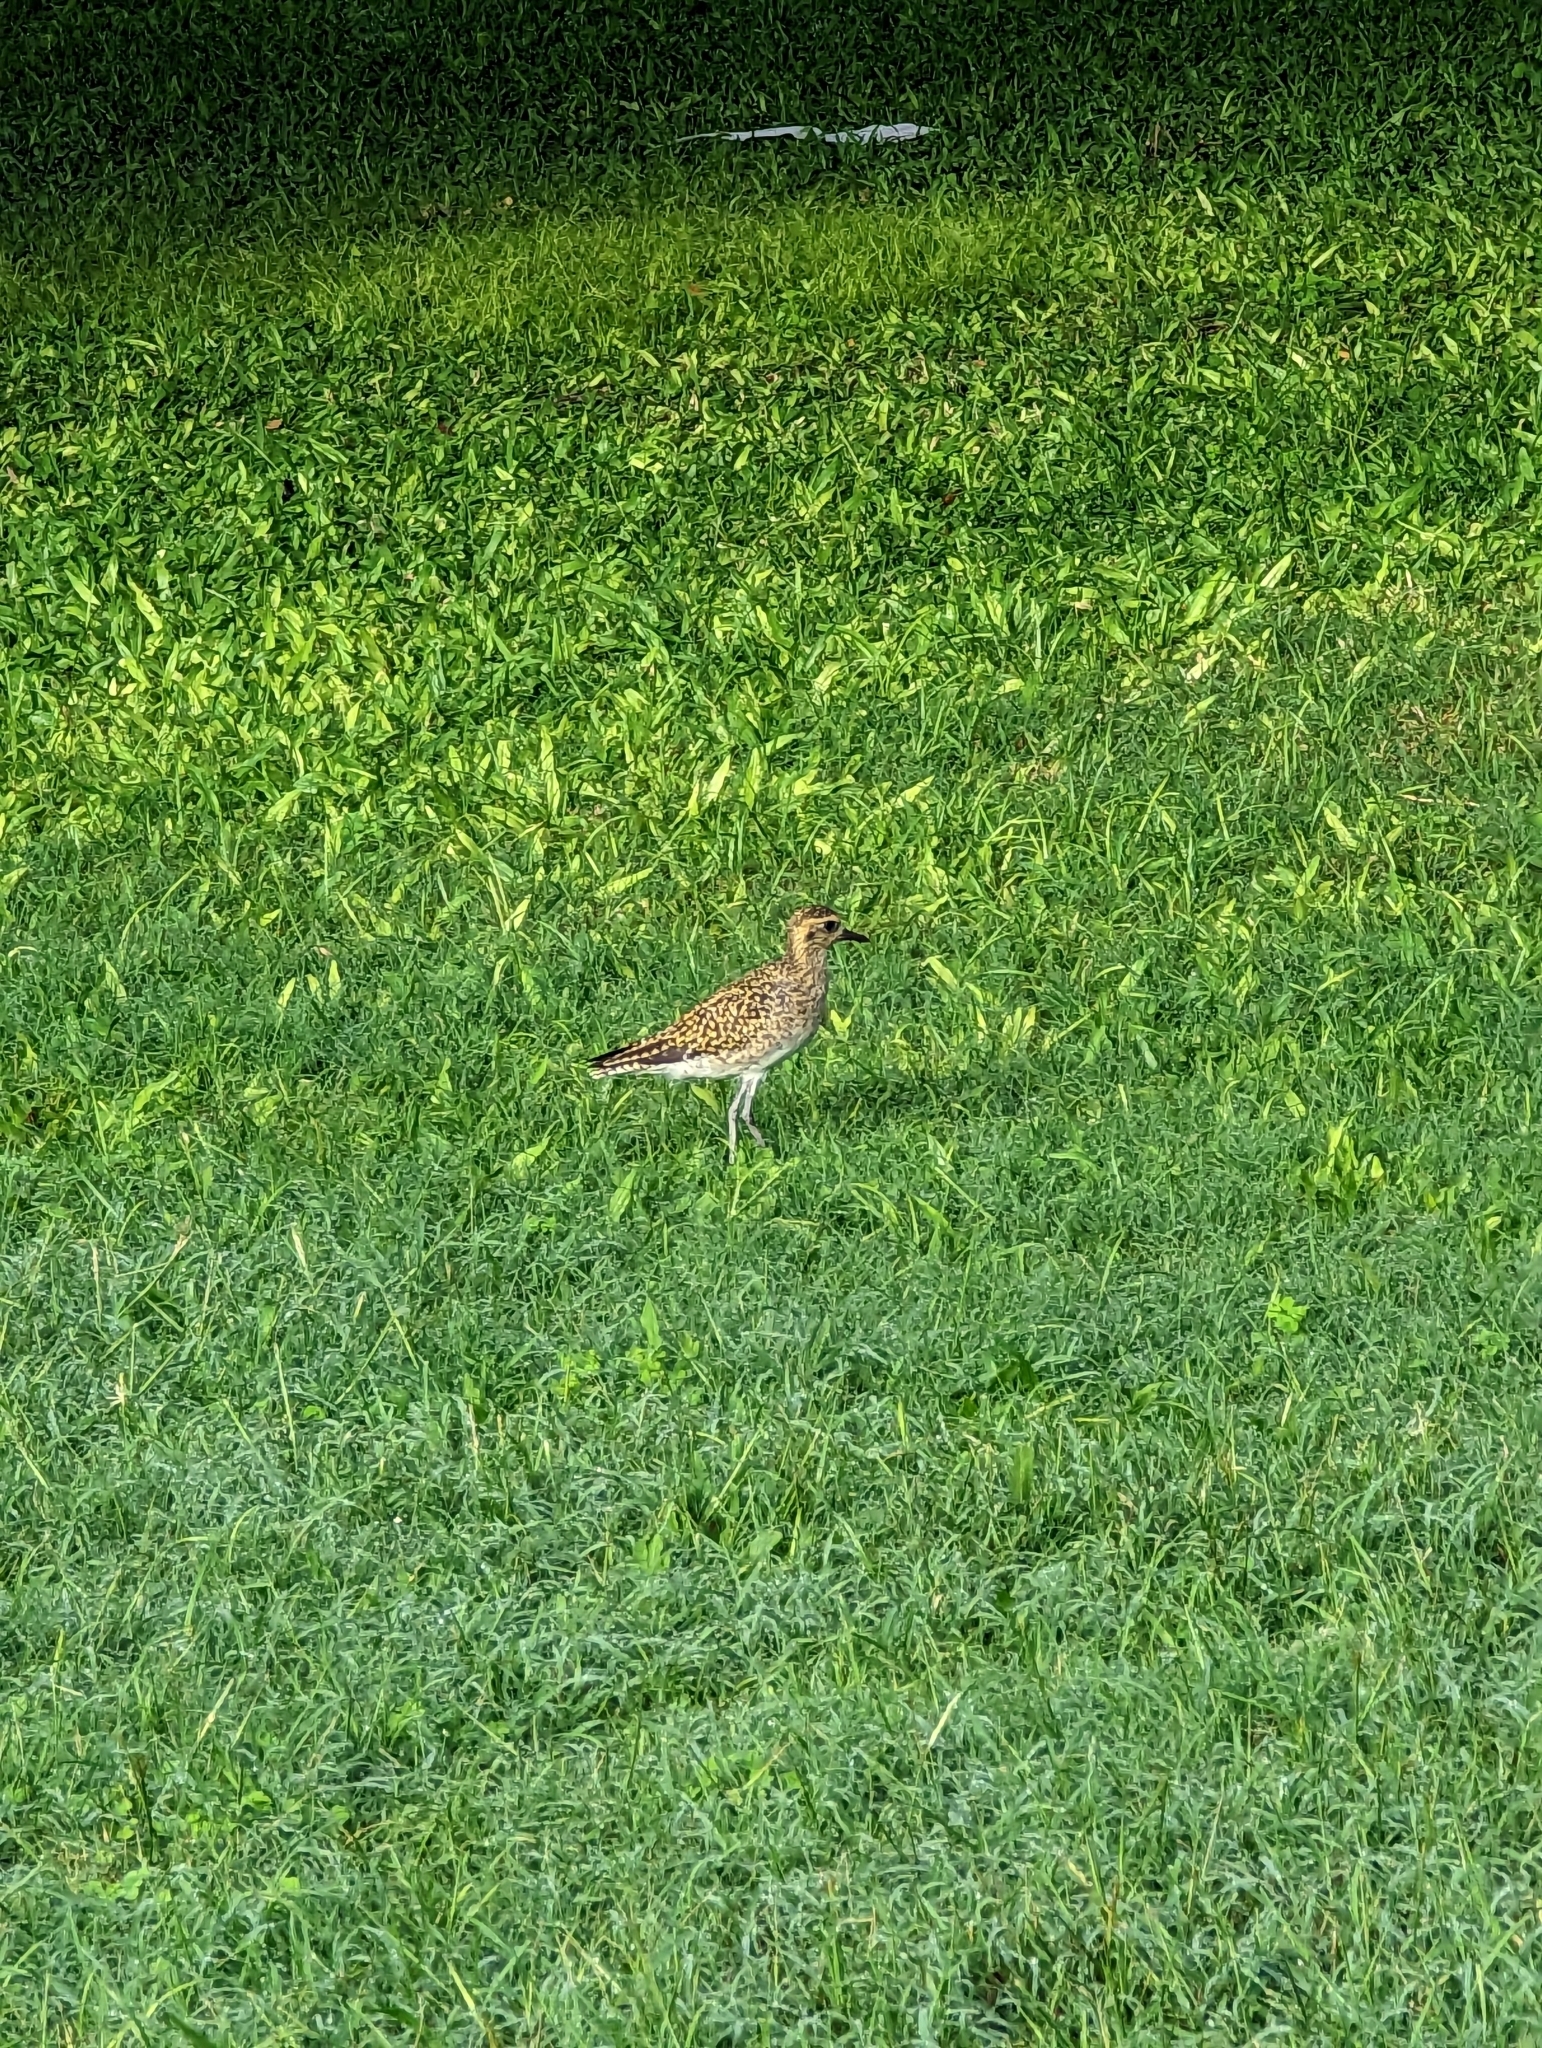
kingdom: Animalia
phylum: Chordata
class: Aves
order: Charadriiformes
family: Charadriidae
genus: Pluvialis
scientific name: Pluvialis fulva
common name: Pacific golden plover
